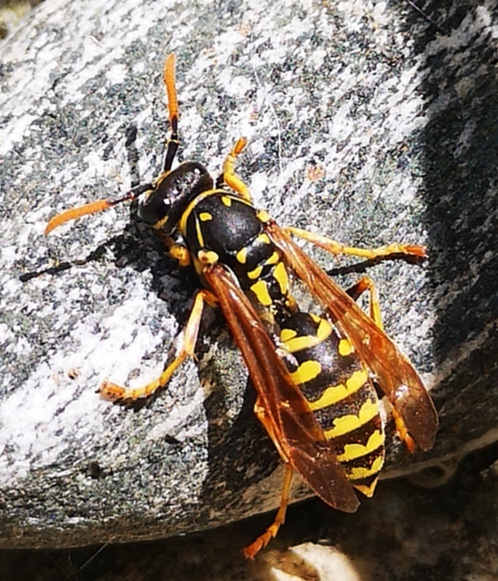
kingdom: Animalia
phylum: Arthropoda
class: Insecta
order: Hymenoptera
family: Eumenidae
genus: Polistes
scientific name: Polistes gallicus
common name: Paper wasp
